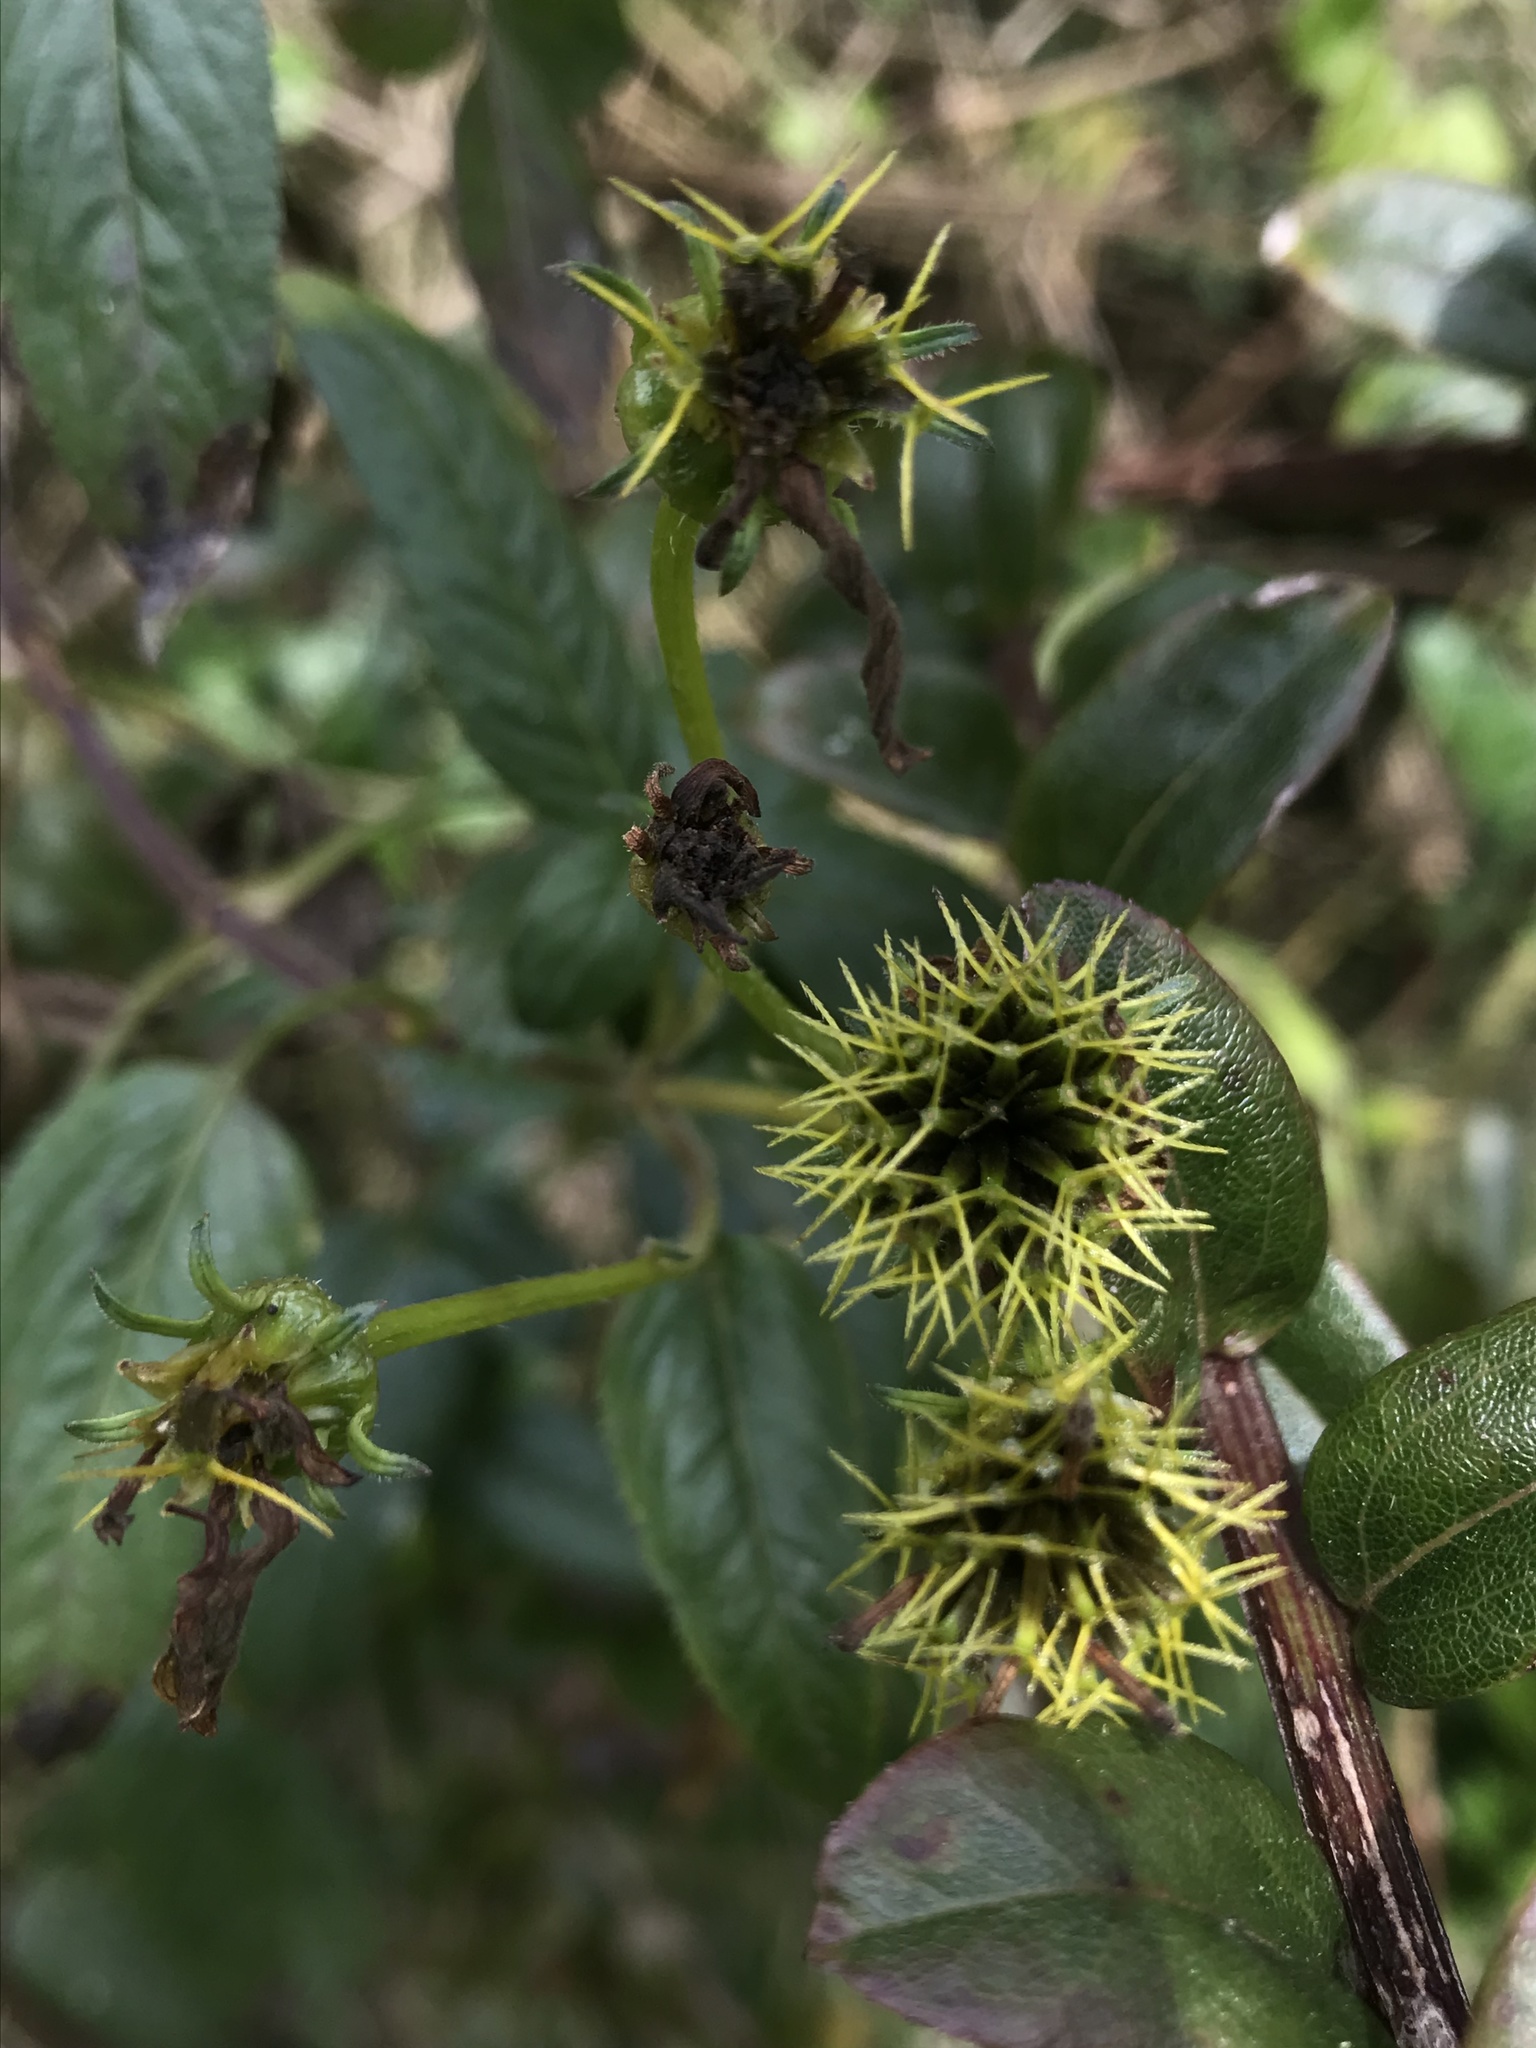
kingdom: Plantae
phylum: Tracheophyta
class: Magnoliopsida
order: Asterales
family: Asteraceae
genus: Bidens
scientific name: Bidens rubifolia
